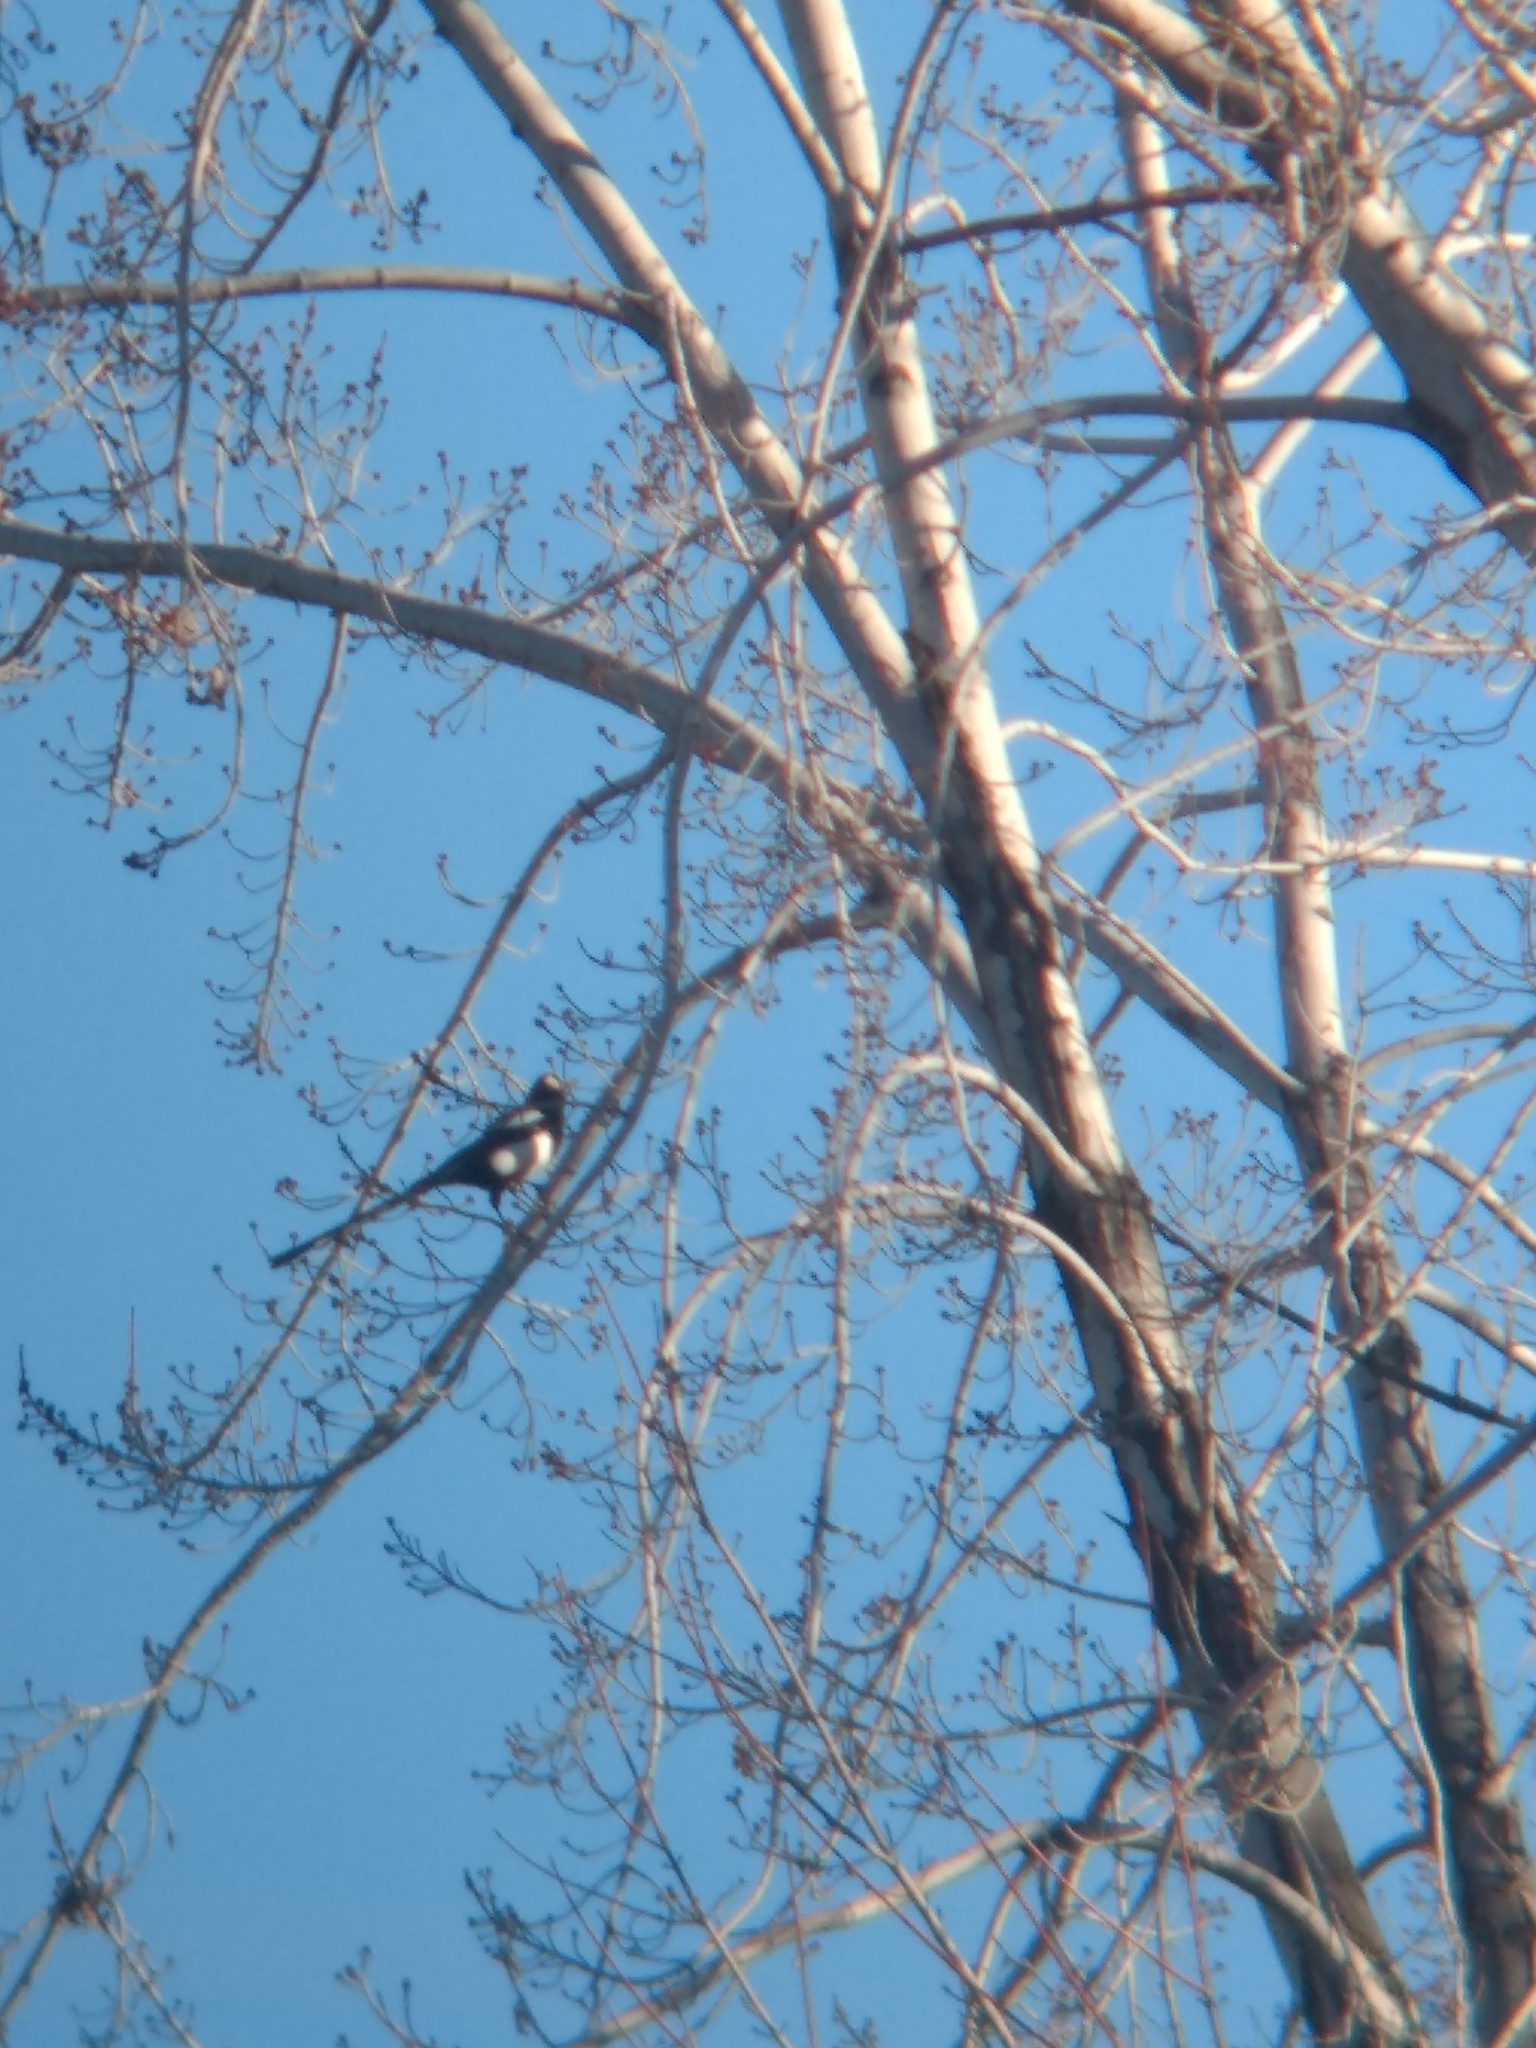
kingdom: Animalia
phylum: Chordata
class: Aves
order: Passeriformes
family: Corvidae
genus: Pica
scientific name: Pica hudsonia
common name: Black-billed magpie
